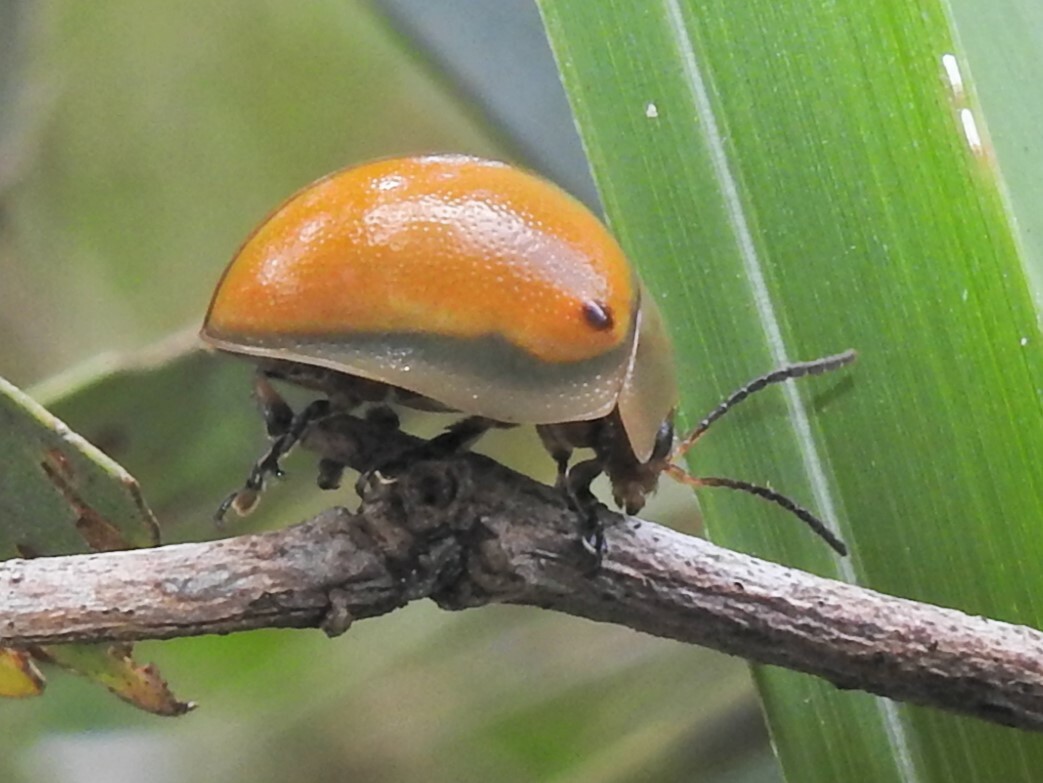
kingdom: Animalia
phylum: Arthropoda
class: Insecta
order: Coleoptera
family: Chrysomelidae
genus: Dicranosterna
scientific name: Dicranosterna
